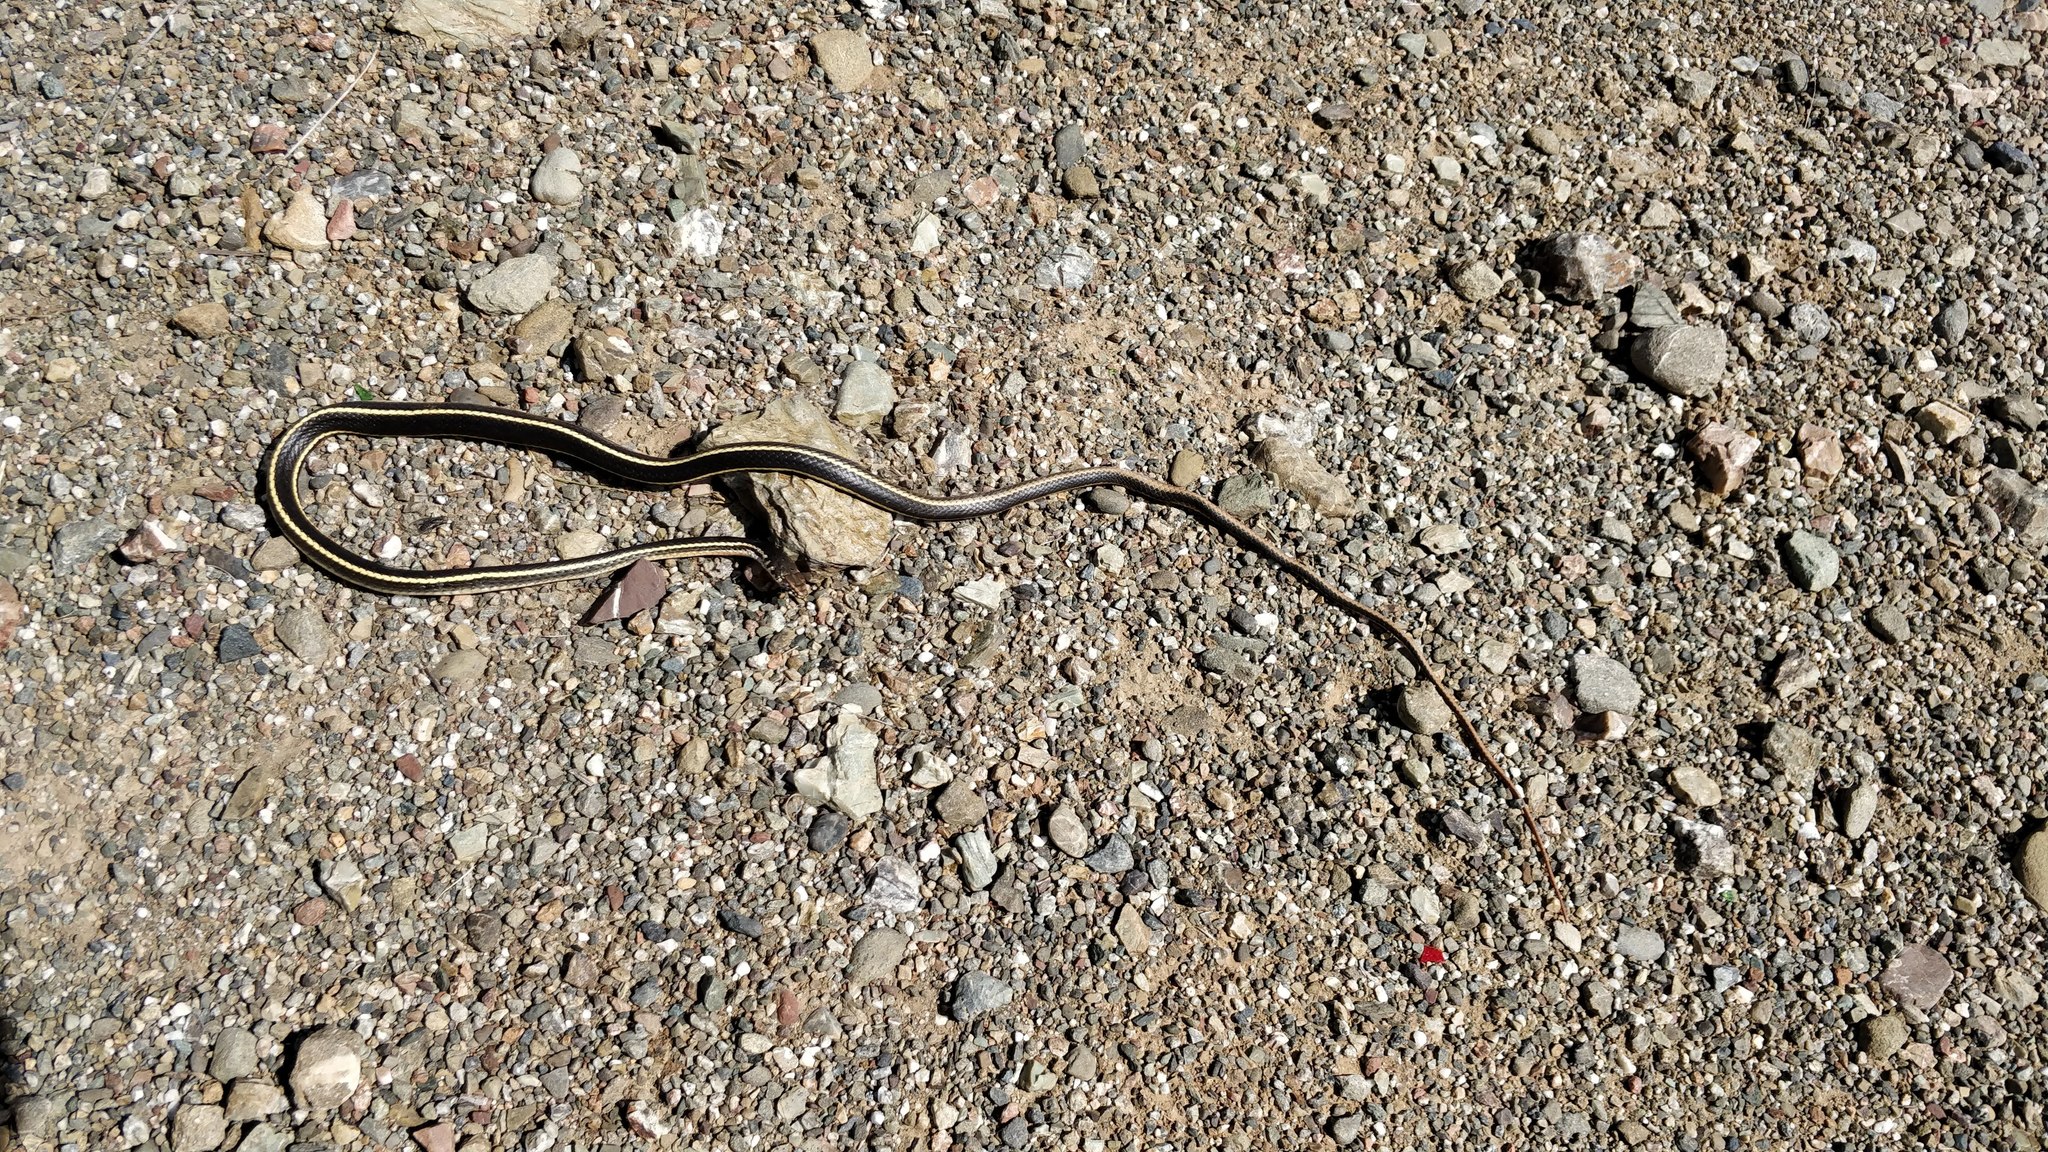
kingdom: Animalia
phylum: Chordata
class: Squamata
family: Colubridae
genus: Masticophis
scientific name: Masticophis lateralis
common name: Striped racer
